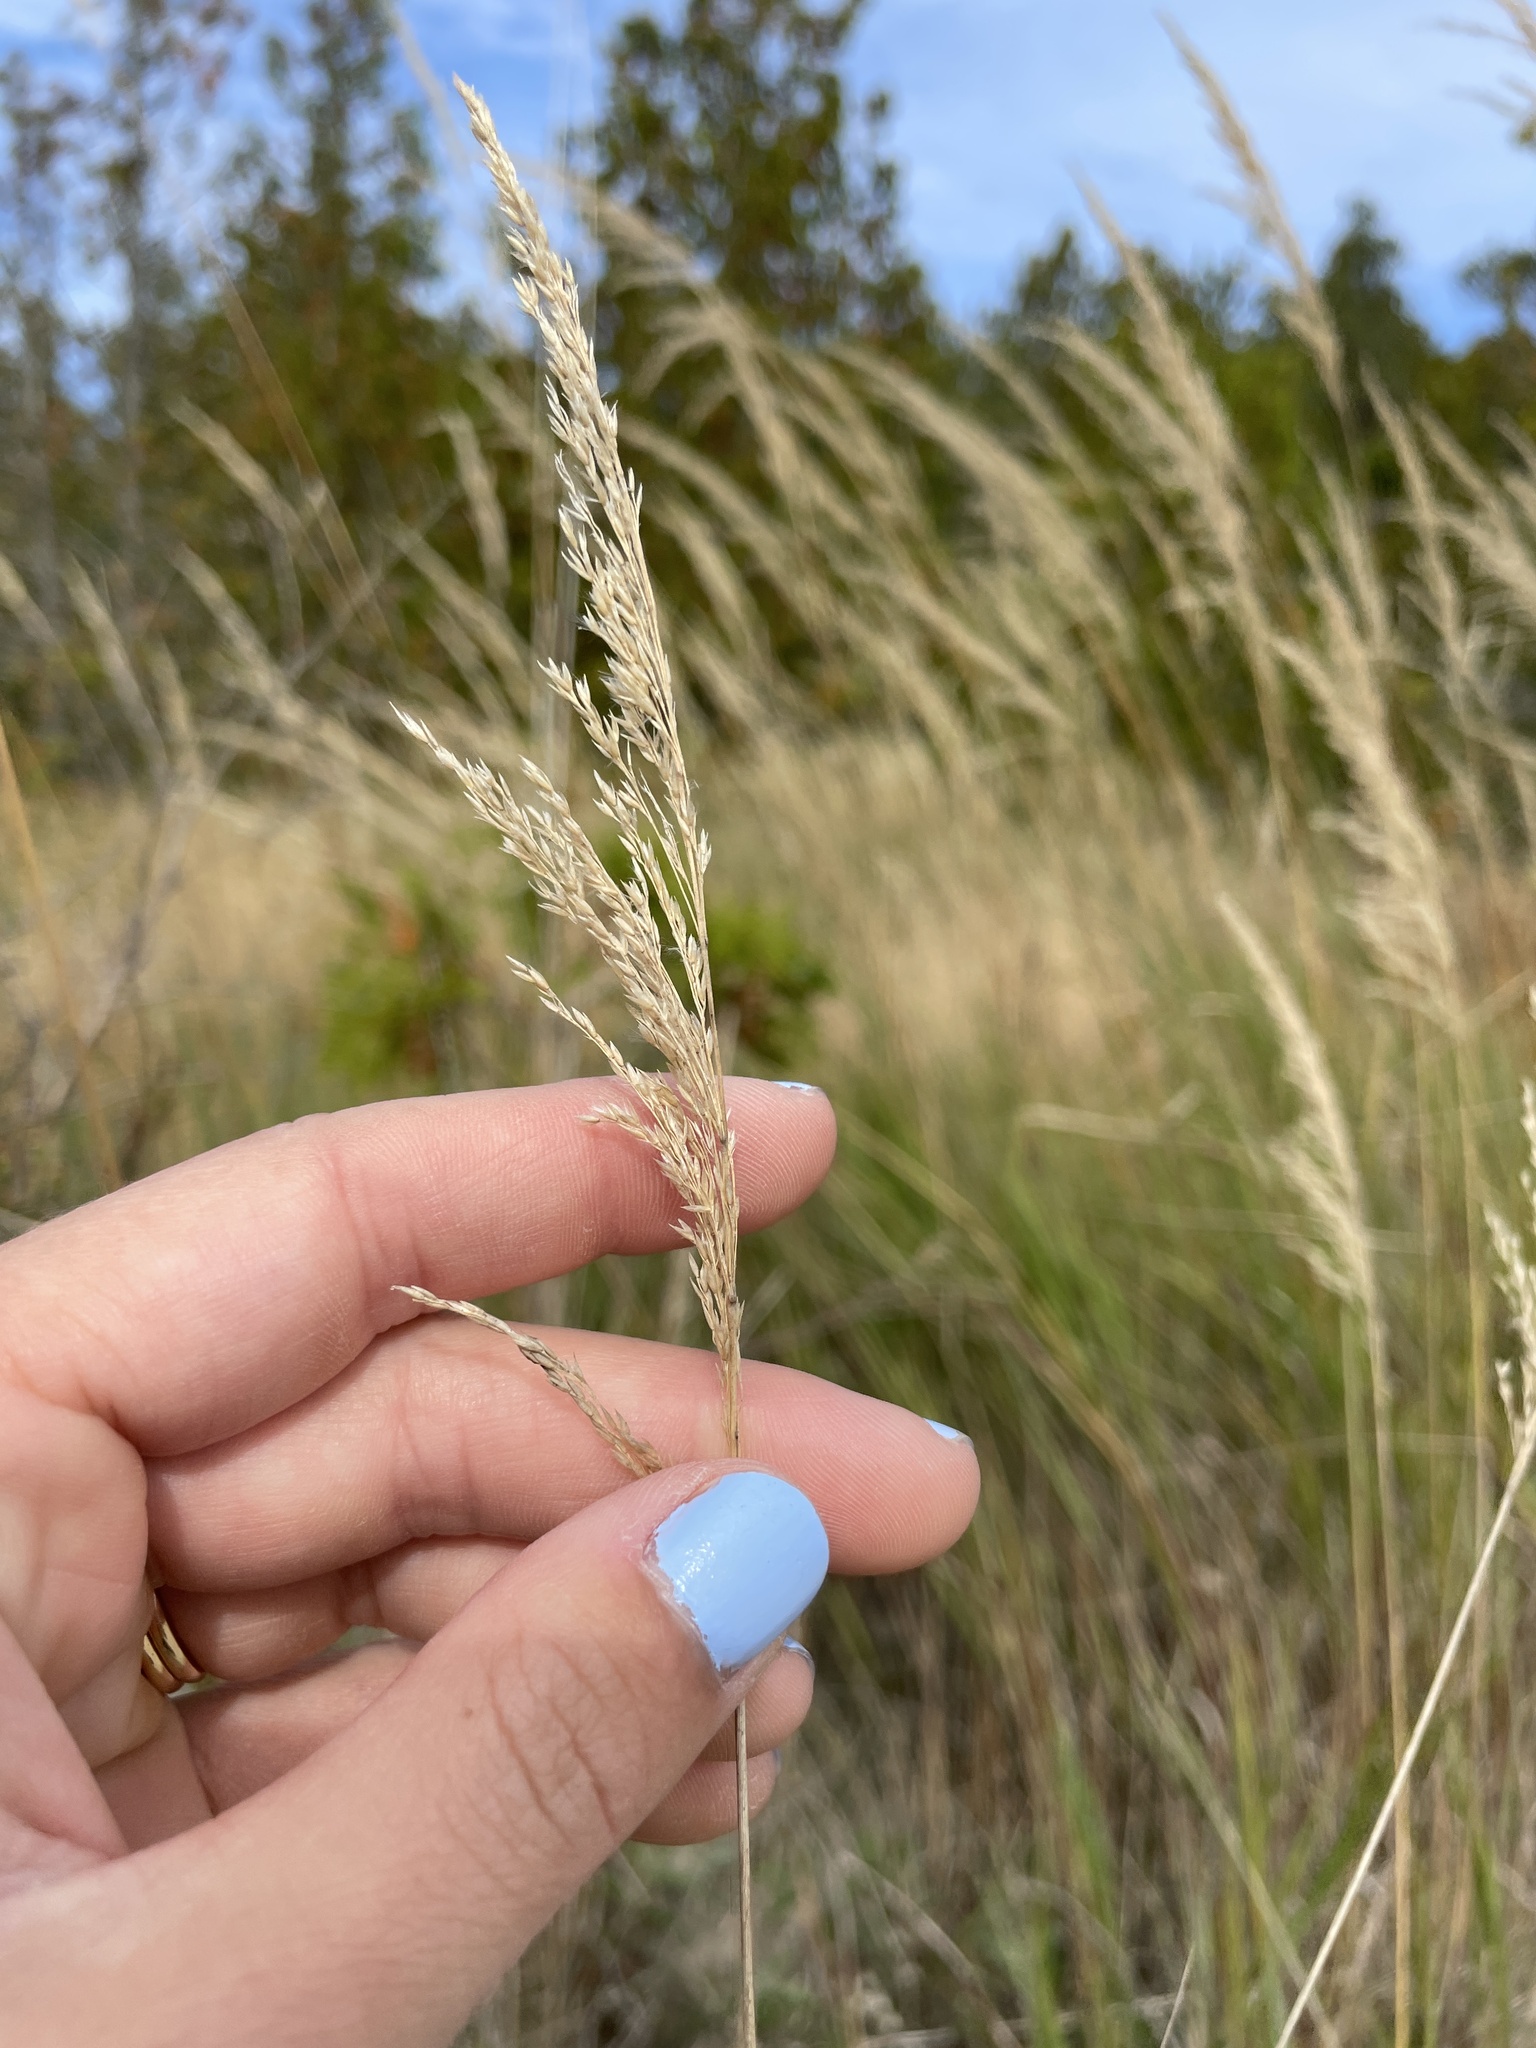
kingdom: Plantae
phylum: Tracheophyta
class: Liliopsida
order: Poales
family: Poaceae
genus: Calamagrostis
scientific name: Calamagrostis canadensis
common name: Canada bluejoint
